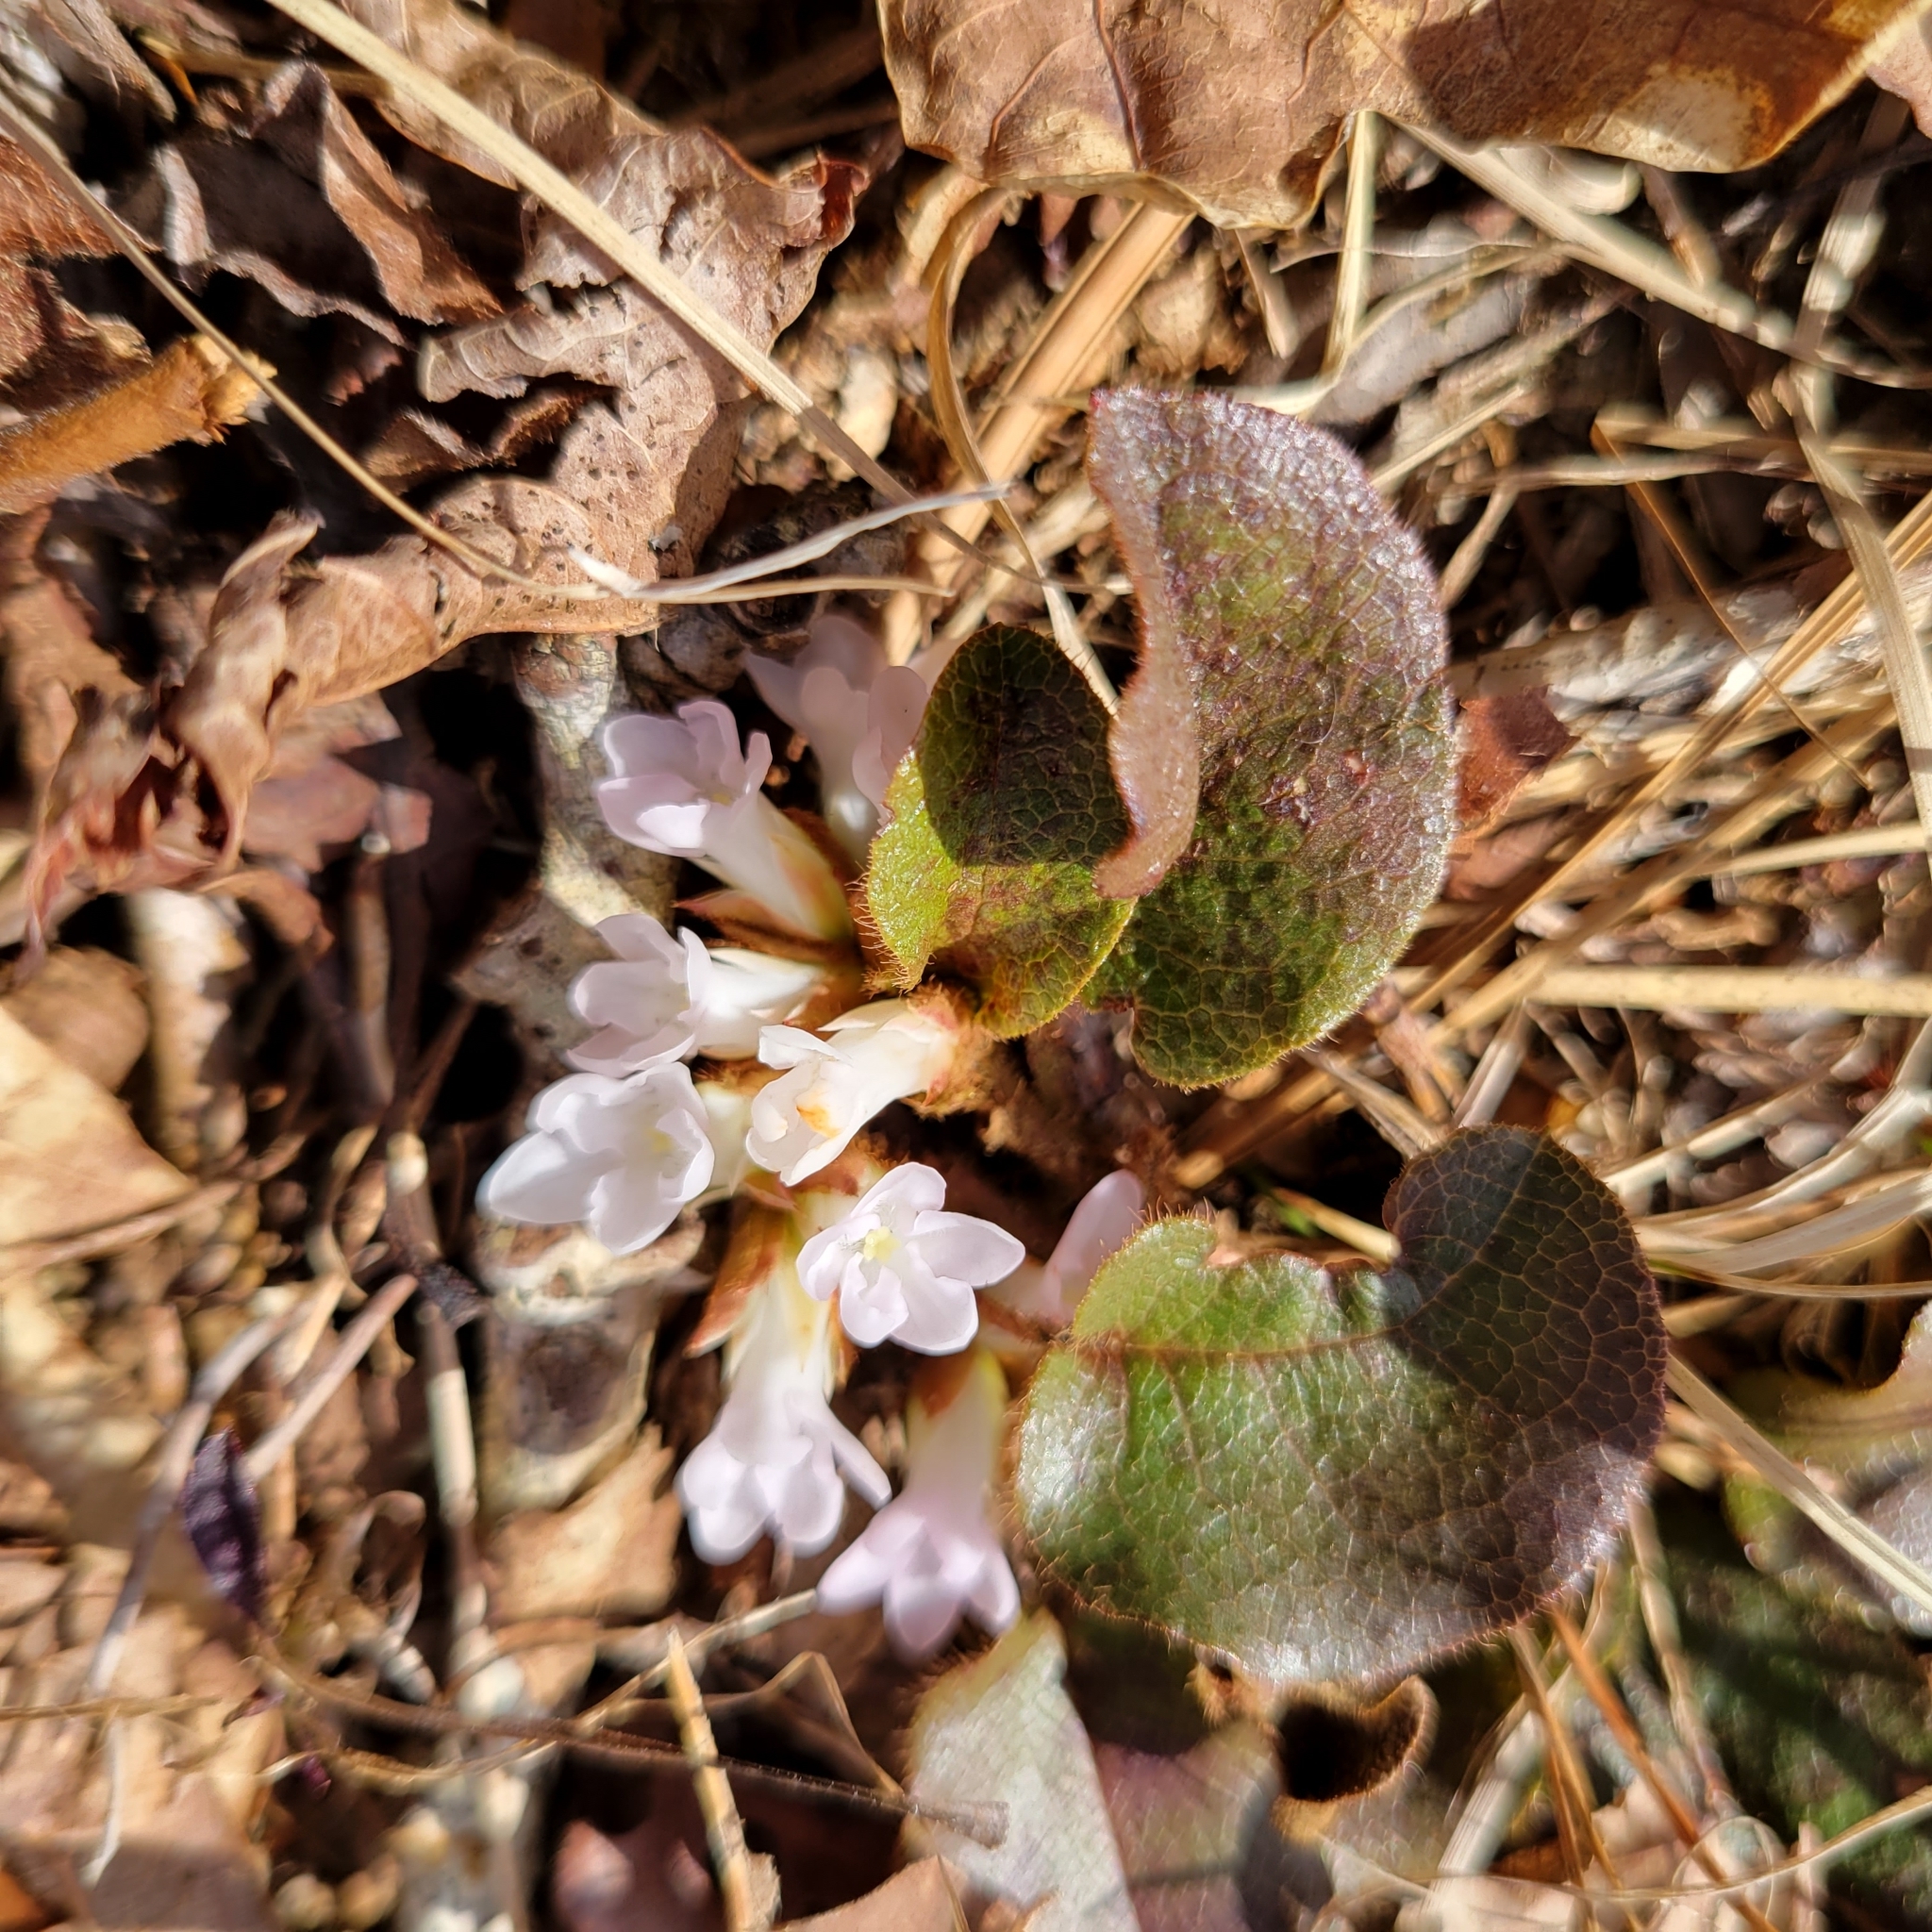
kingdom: Plantae
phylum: Tracheophyta
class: Magnoliopsida
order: Ericales
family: Ericaceae
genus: Epigaea
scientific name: Epigaea repens
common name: Gravelroot
